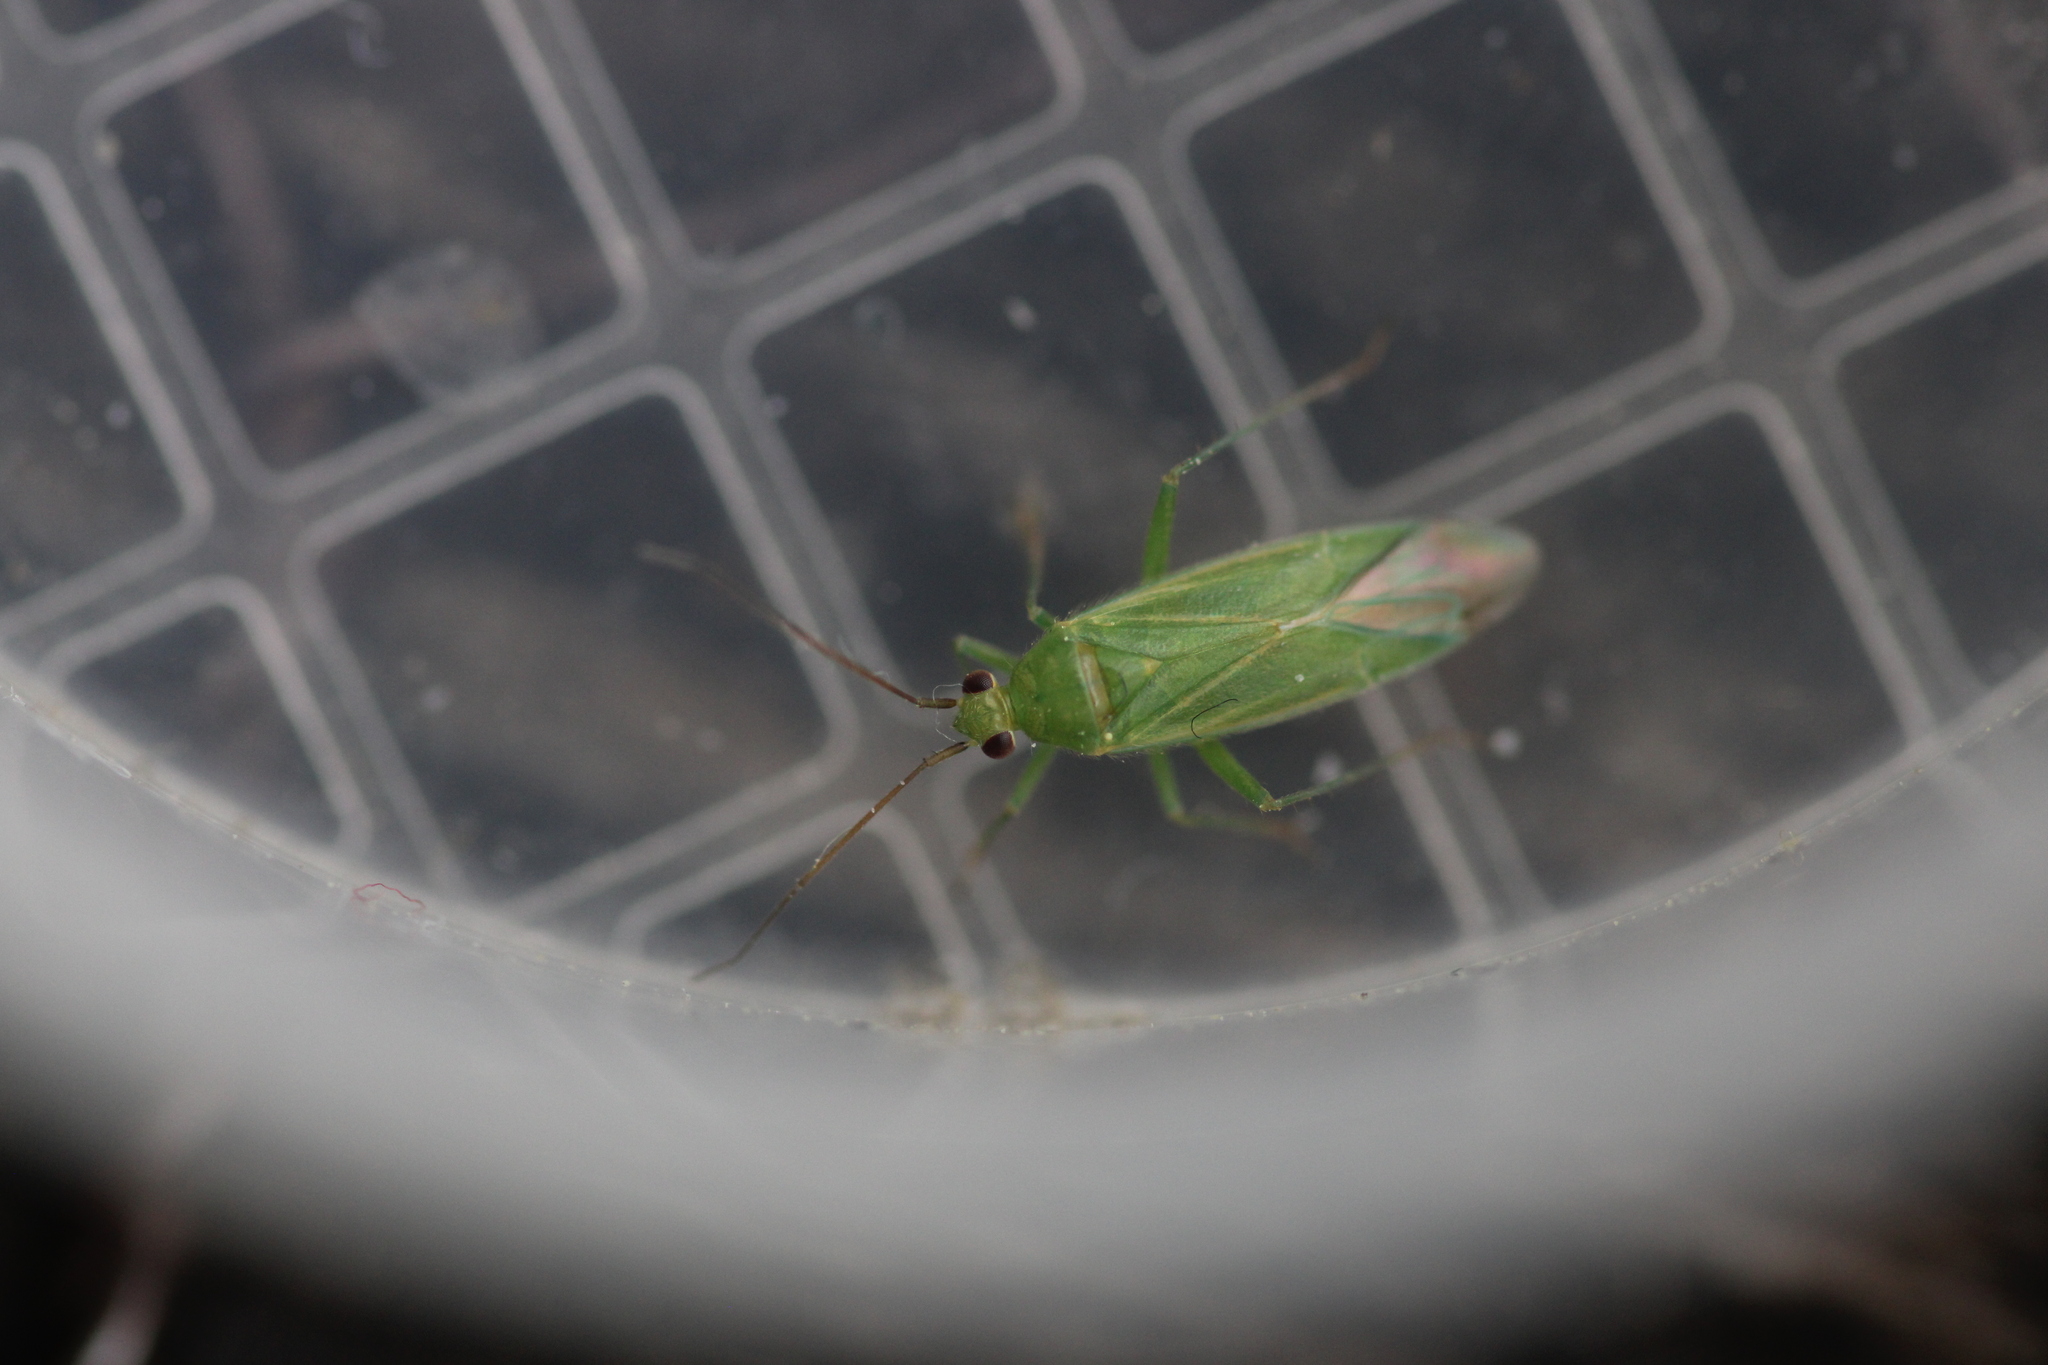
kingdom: Animalia
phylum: Arthropoda
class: Insecta
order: Hemiptera
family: Miridae
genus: Orthotylus
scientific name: Orthotylus marginalis
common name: Dark green apple capsid
